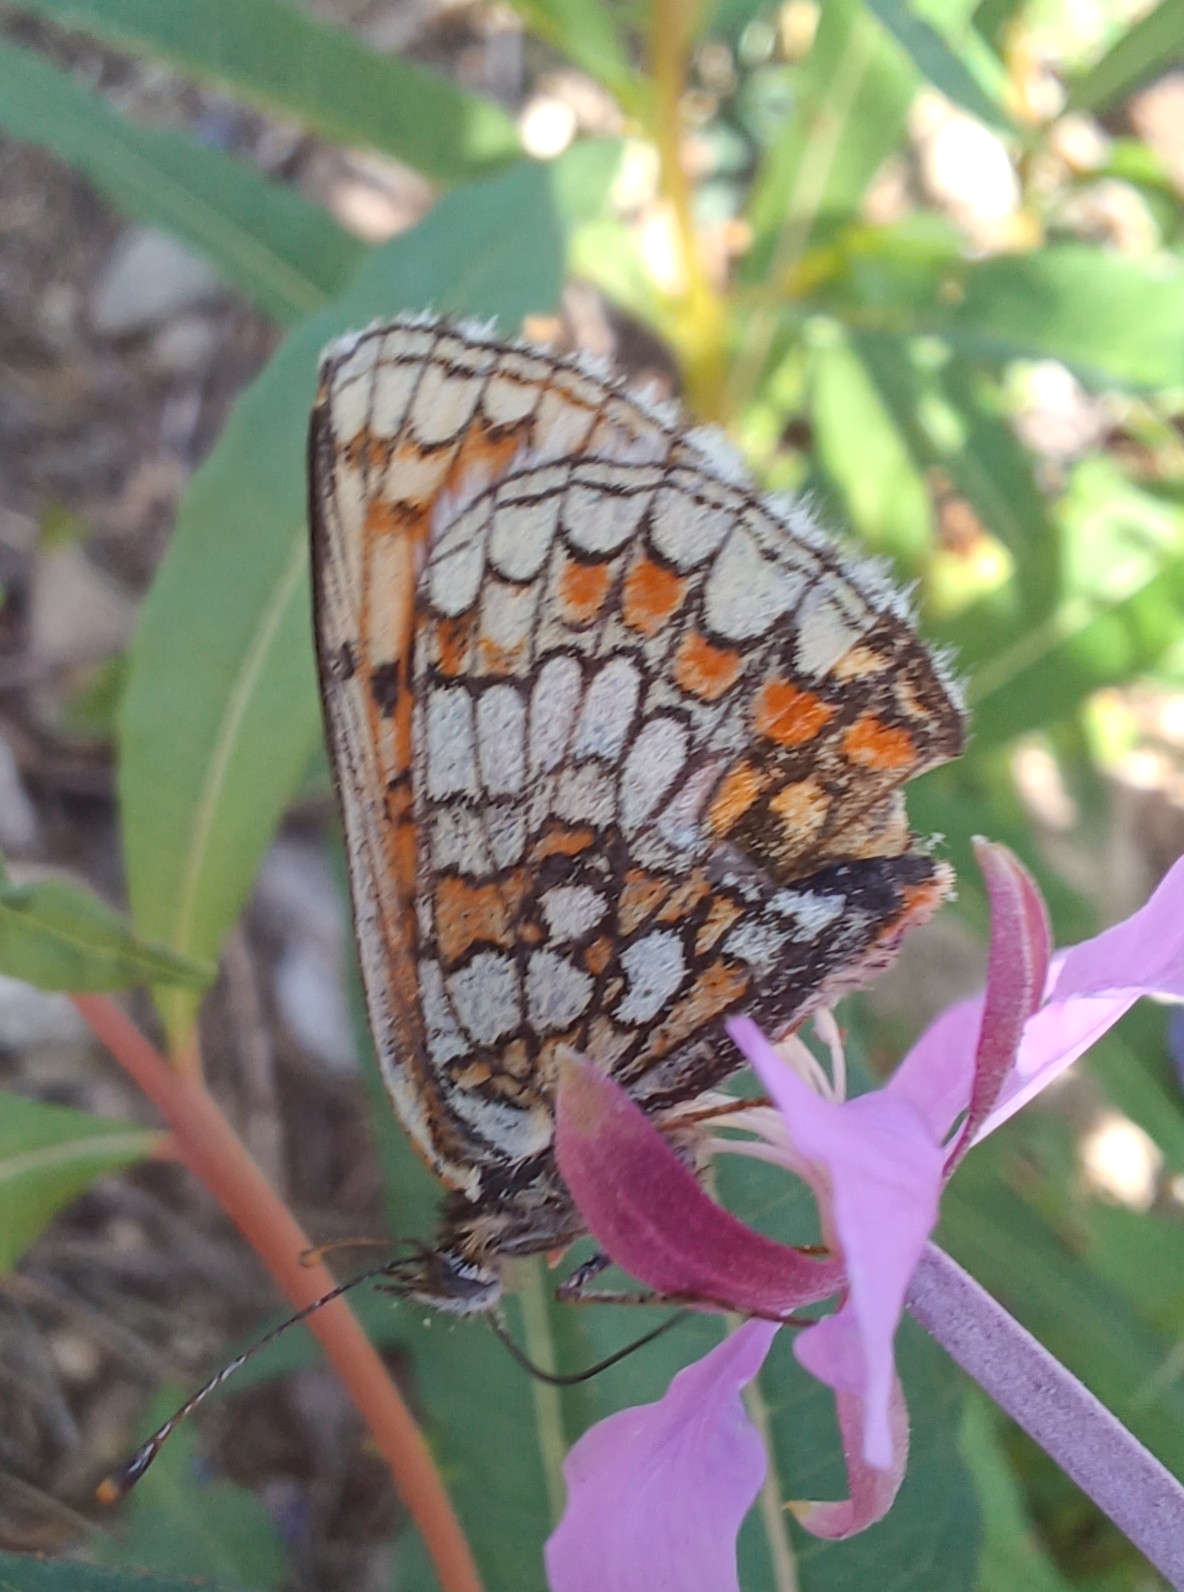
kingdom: Animalia
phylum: Arthropoda
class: Insecta
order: Lepidoptera
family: Nymphalidae
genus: Melitaea
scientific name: Melitaea athalia
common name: Heath fritillary
